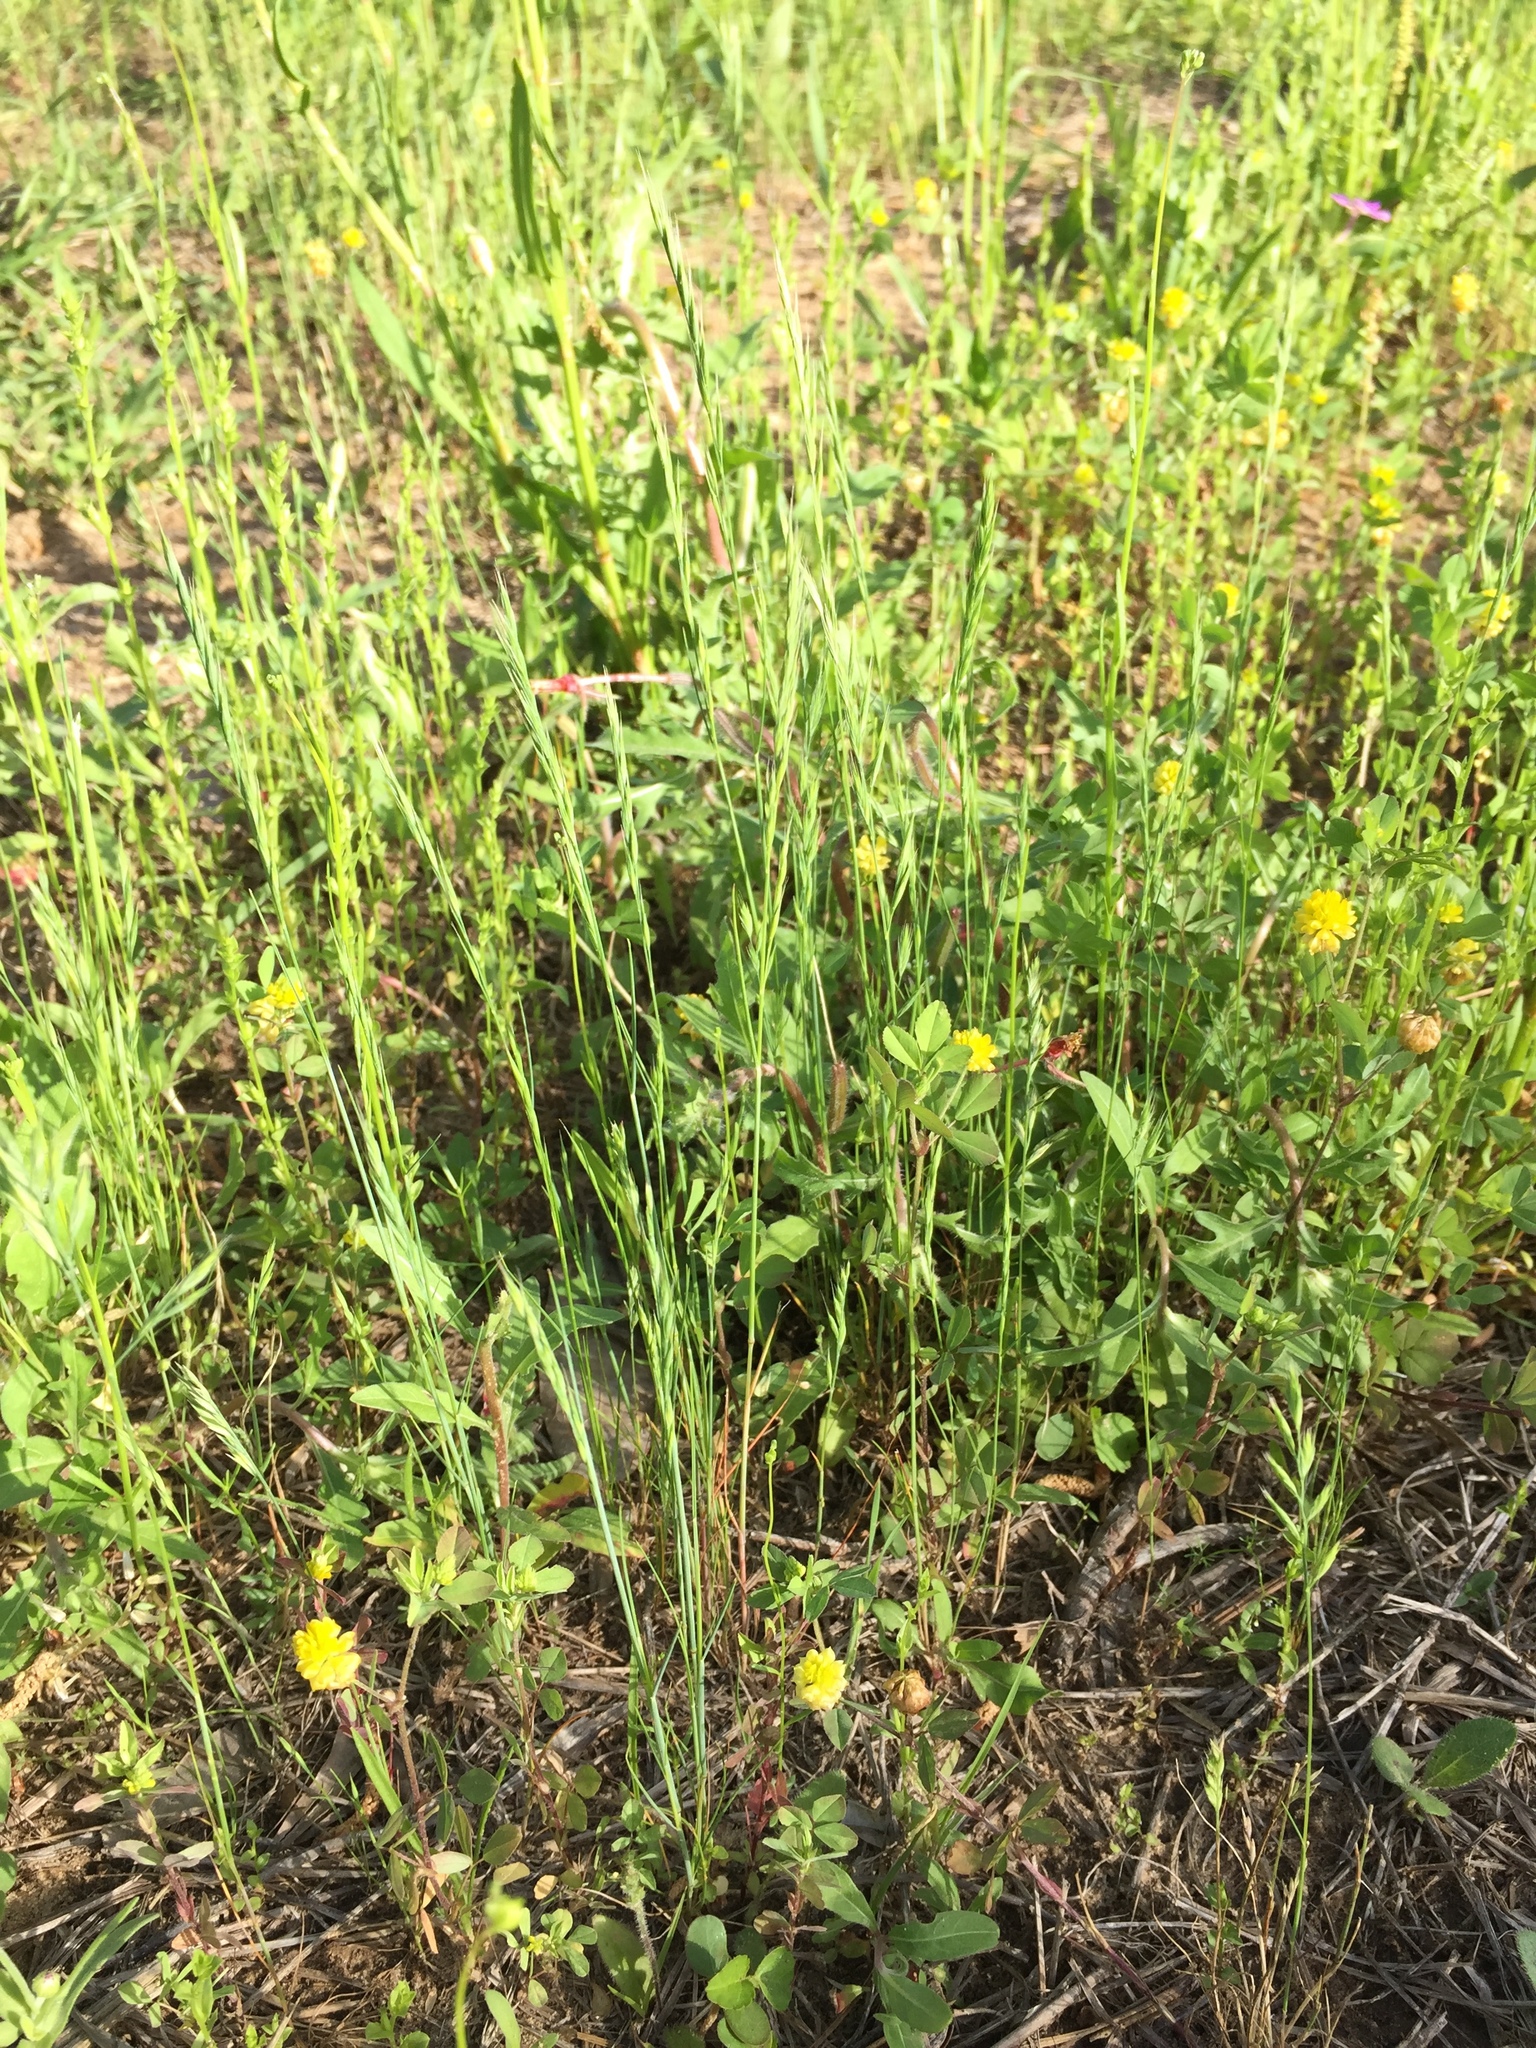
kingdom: Plantae
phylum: Tracheophyta
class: Liliopsida
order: Poales
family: Poaceae
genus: Festuca
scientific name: Festuca octoflora
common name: Sixweeks grass
